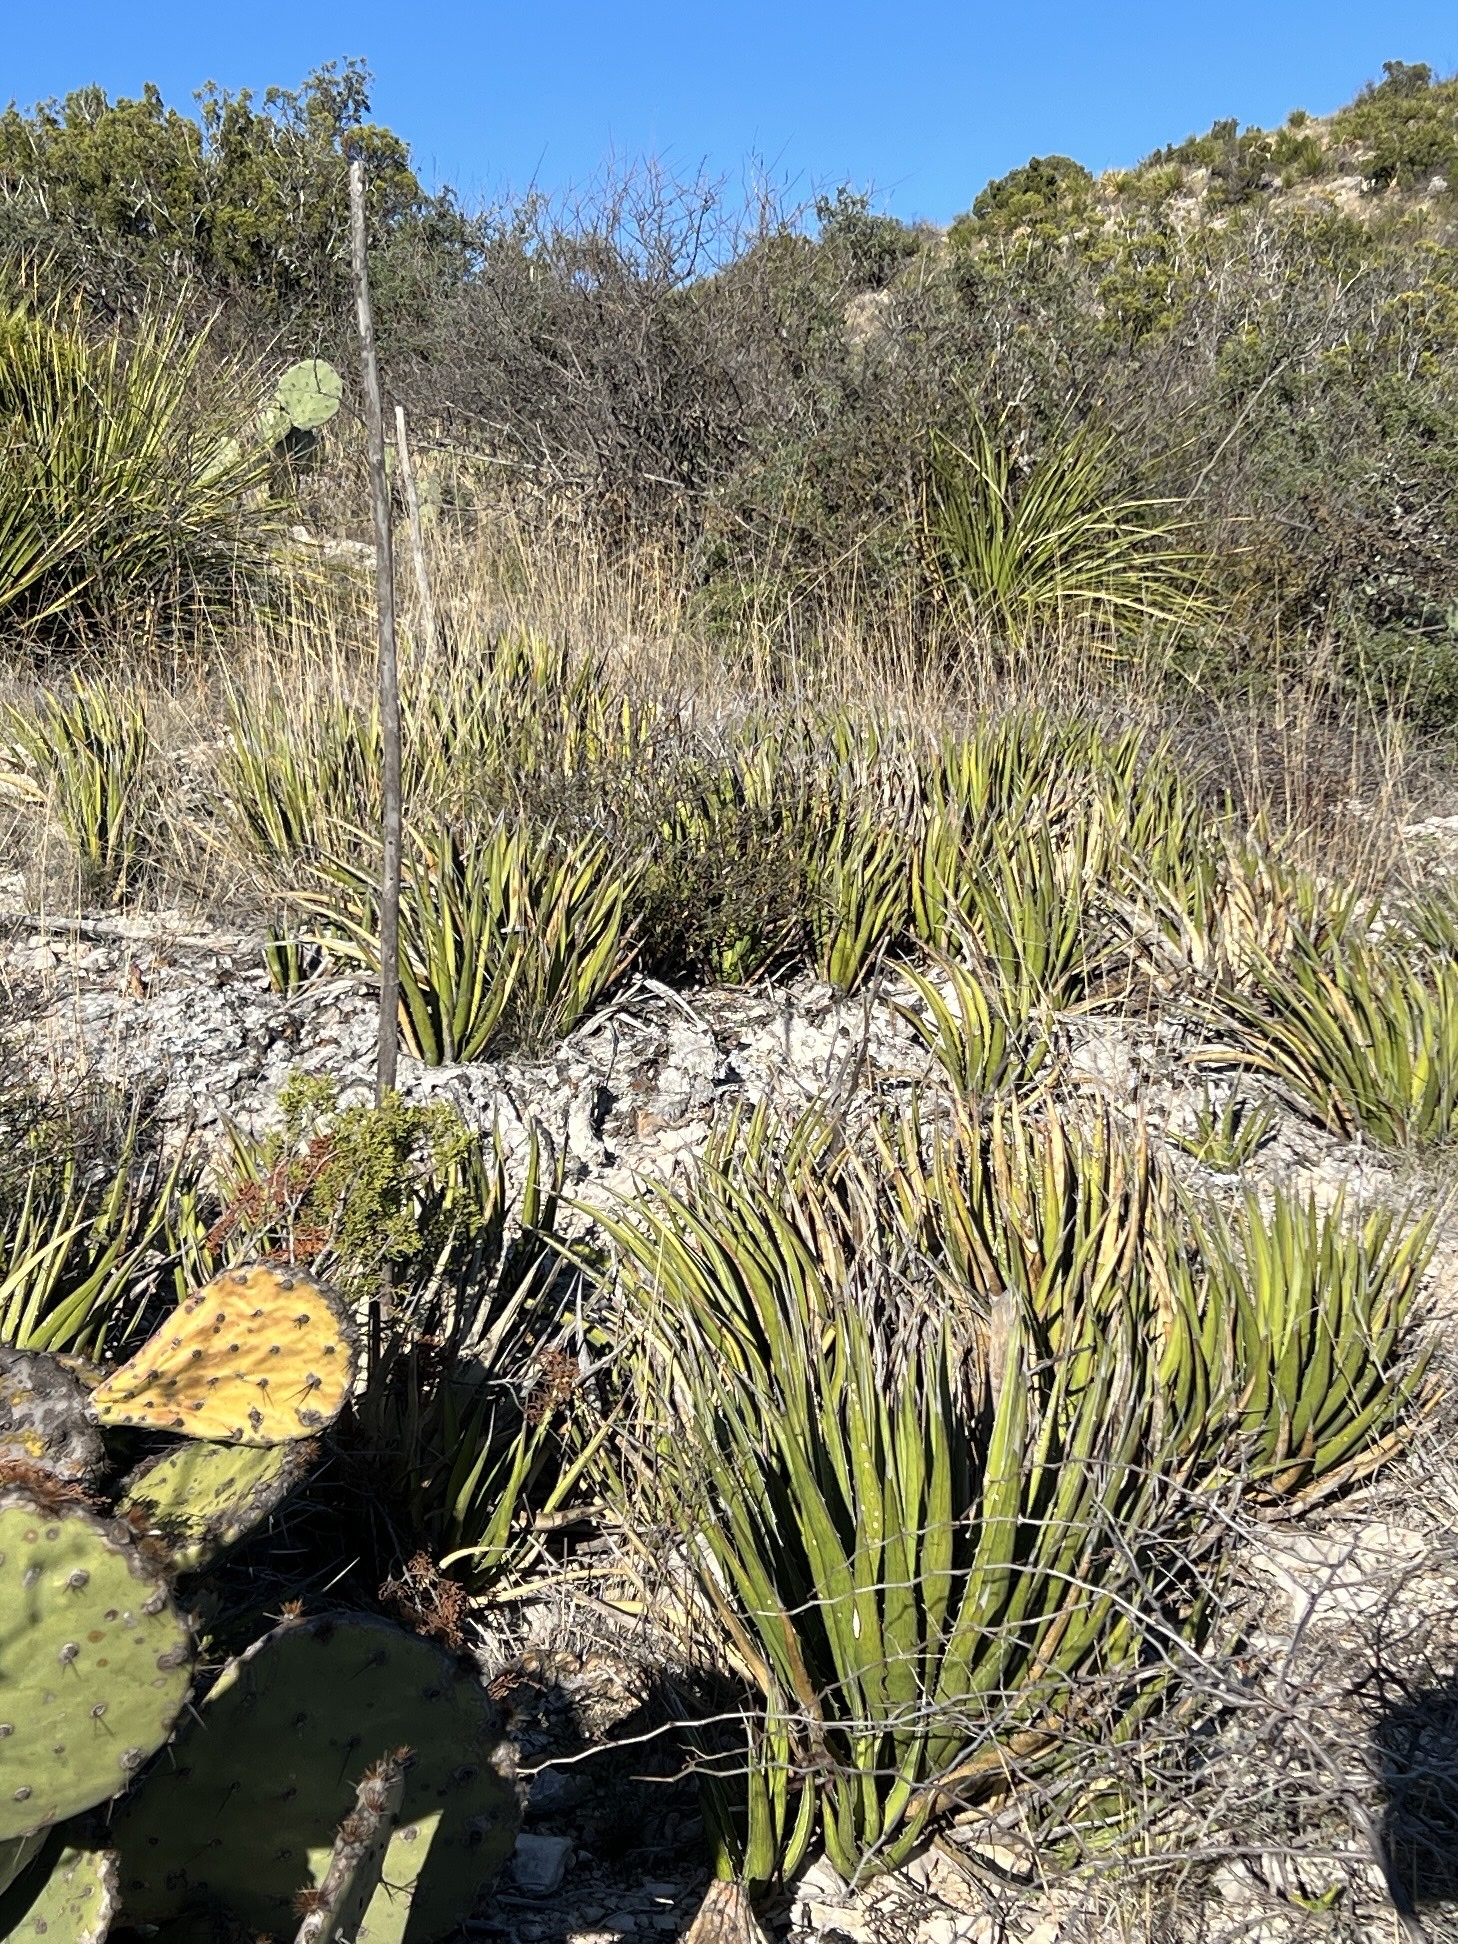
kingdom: Plantae
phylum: Tracheophyta
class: Liliopsida
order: Asparagales
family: Asparagaceae
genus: Agave
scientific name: Agave lechuguilla
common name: Lecheguilla agave
